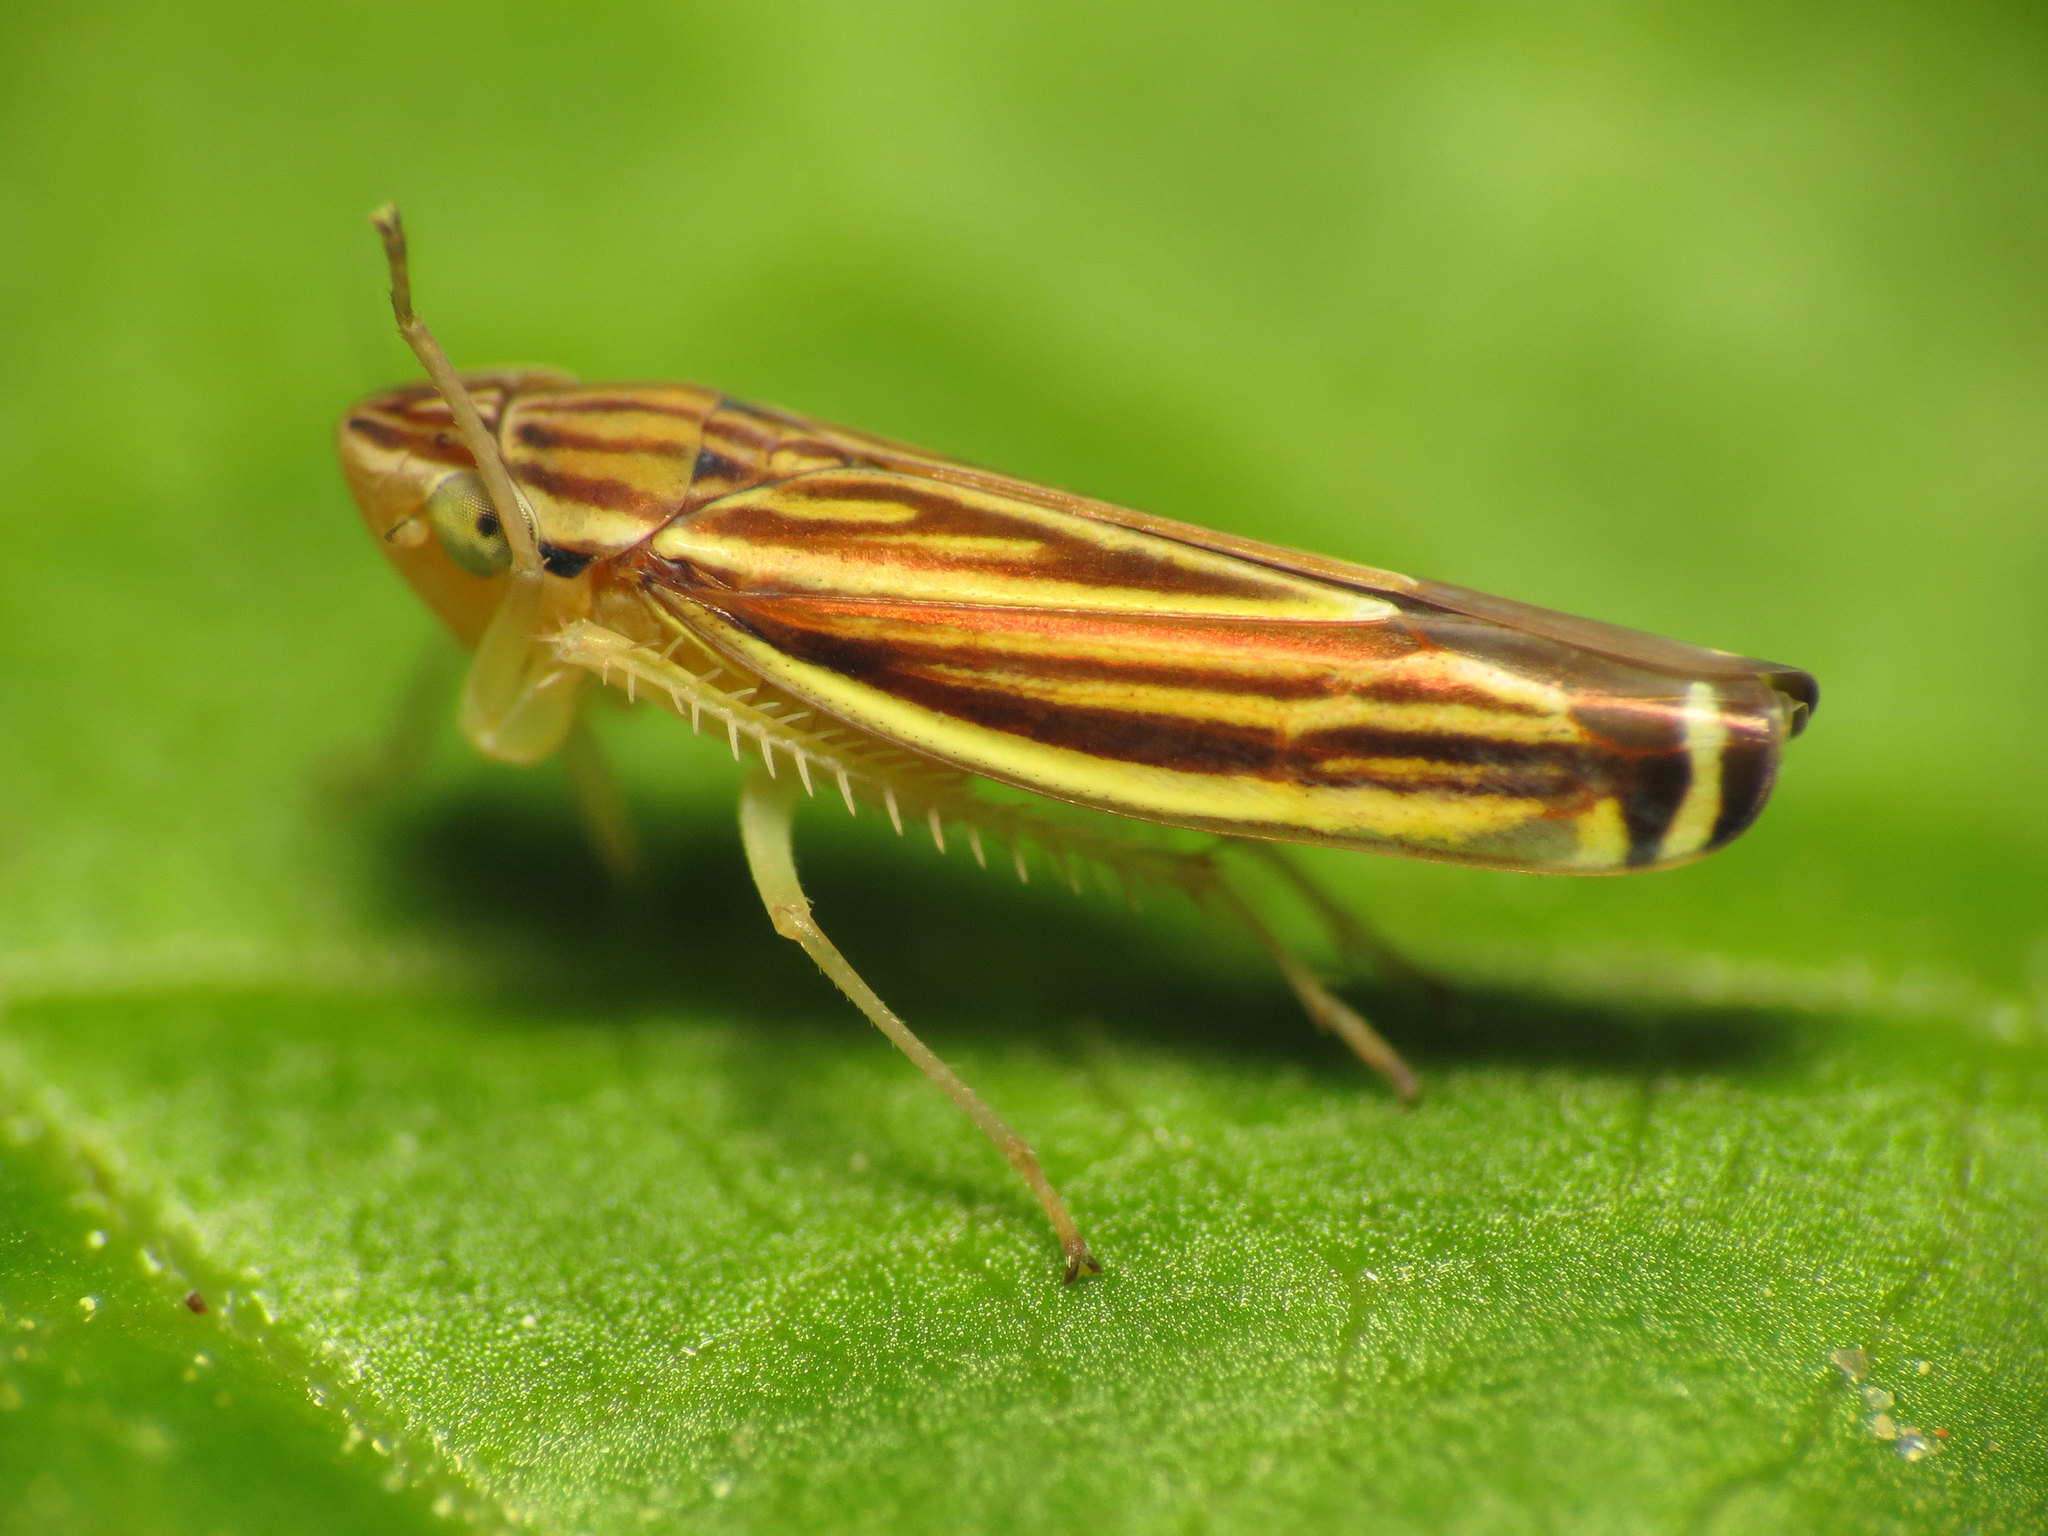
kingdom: Animalia
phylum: Arthropoda
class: Insecta
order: Hemiptera
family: Cicadellidae
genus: Sibovia
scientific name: Sibovia occatoria
